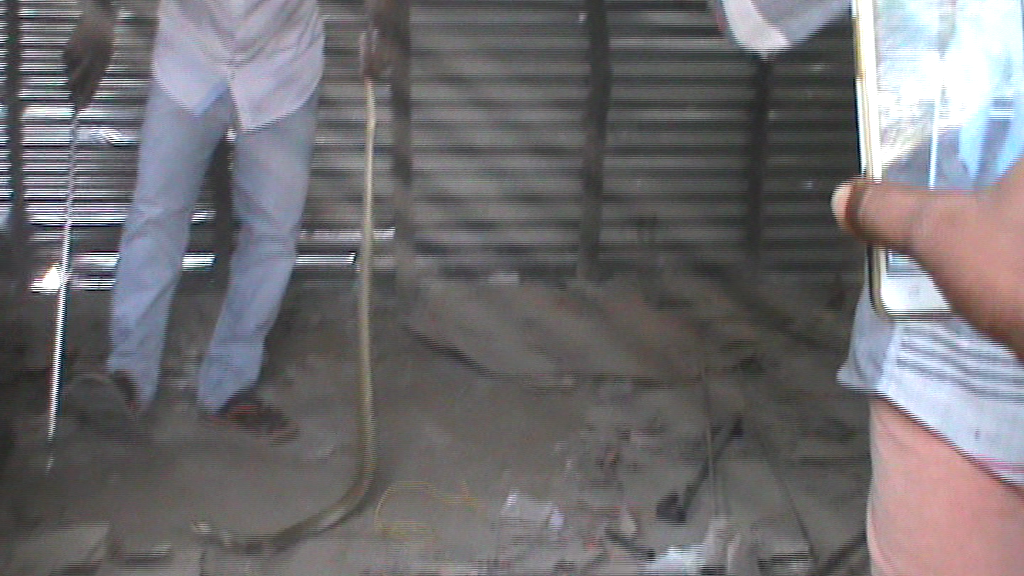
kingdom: Animalia
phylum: Chordata
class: Squamata
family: Elapidae
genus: Naja
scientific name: Naja naja
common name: Indian cobra
